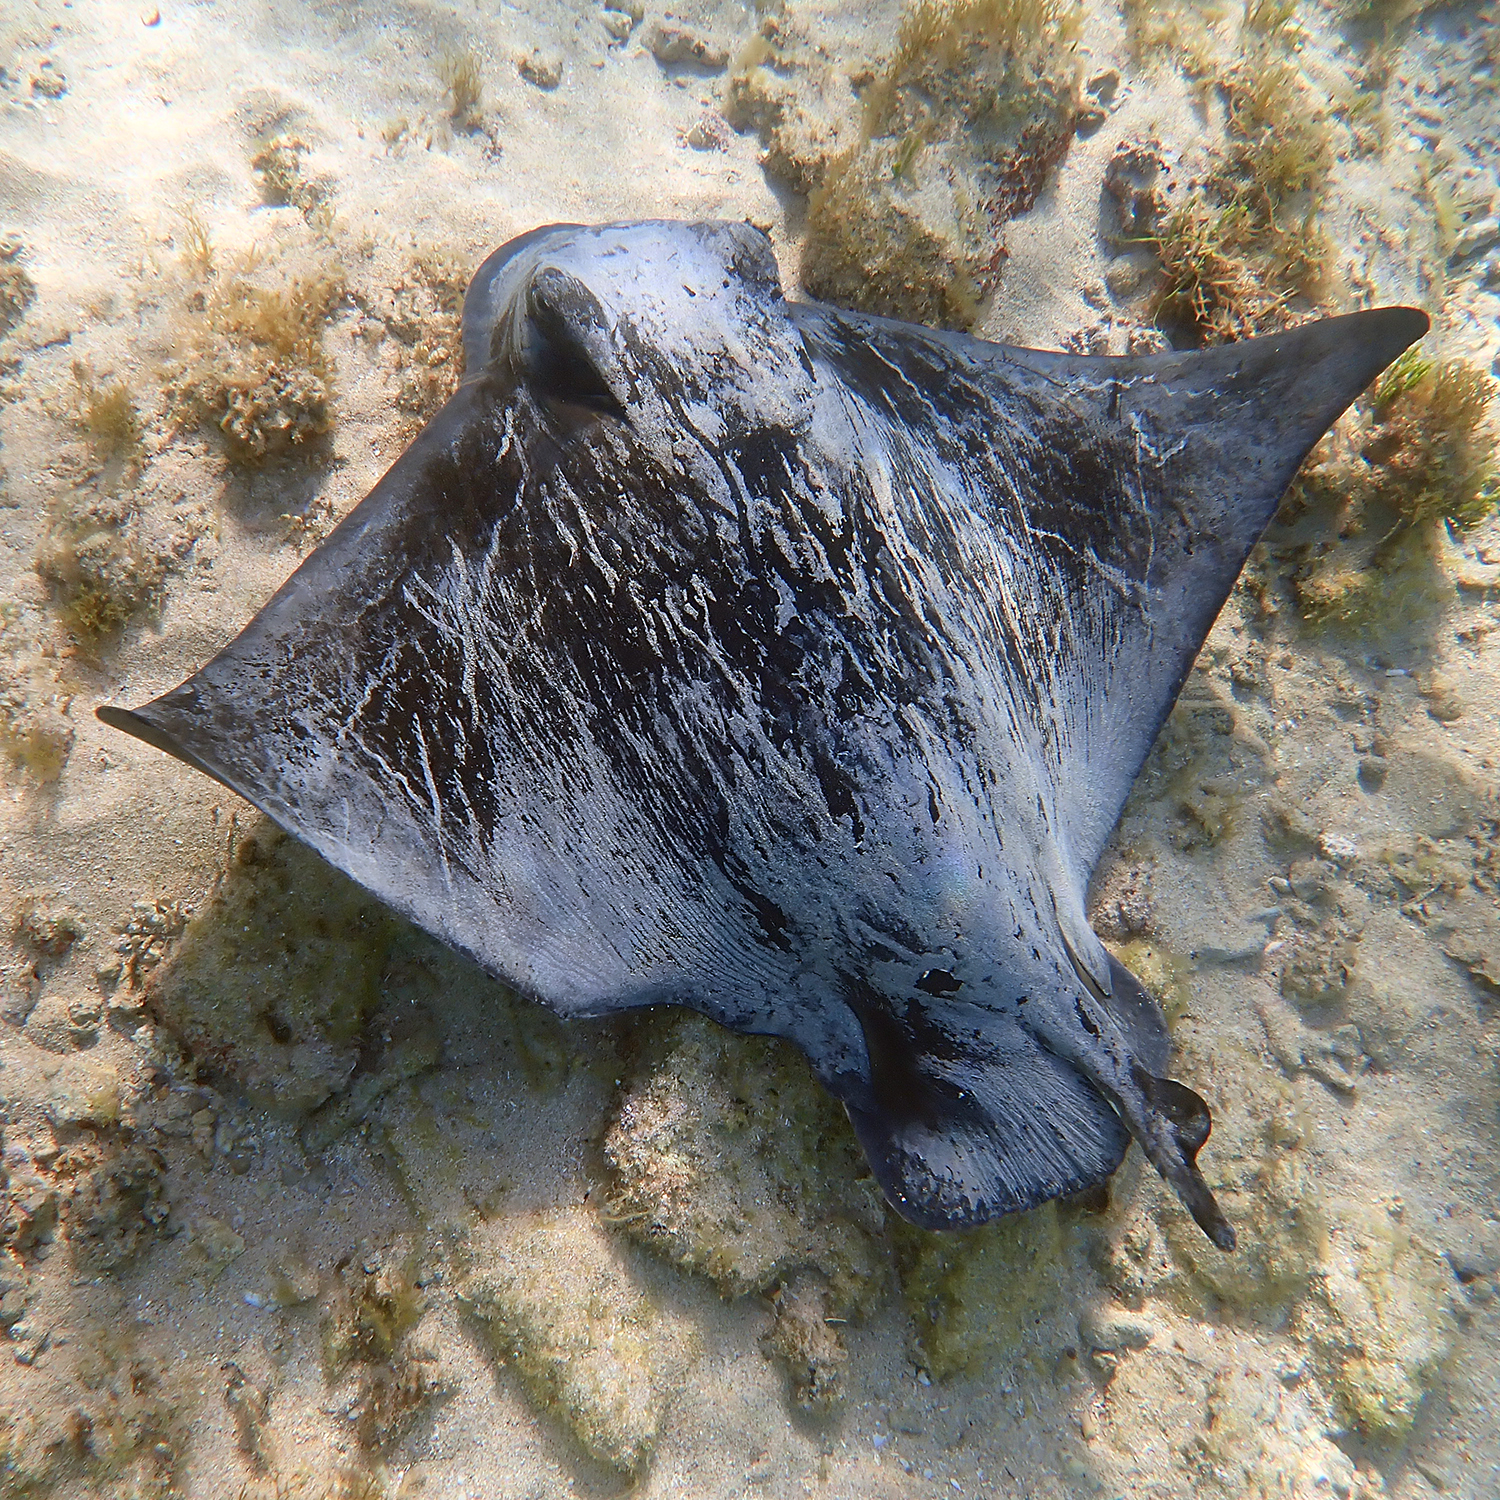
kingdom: Animalia
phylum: Chordata
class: Elasmobranchii
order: Myliobatiformes
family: Myliobatidae
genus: Myliobatis
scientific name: Myliobatis tenuicaudatus
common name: Eagle ray
